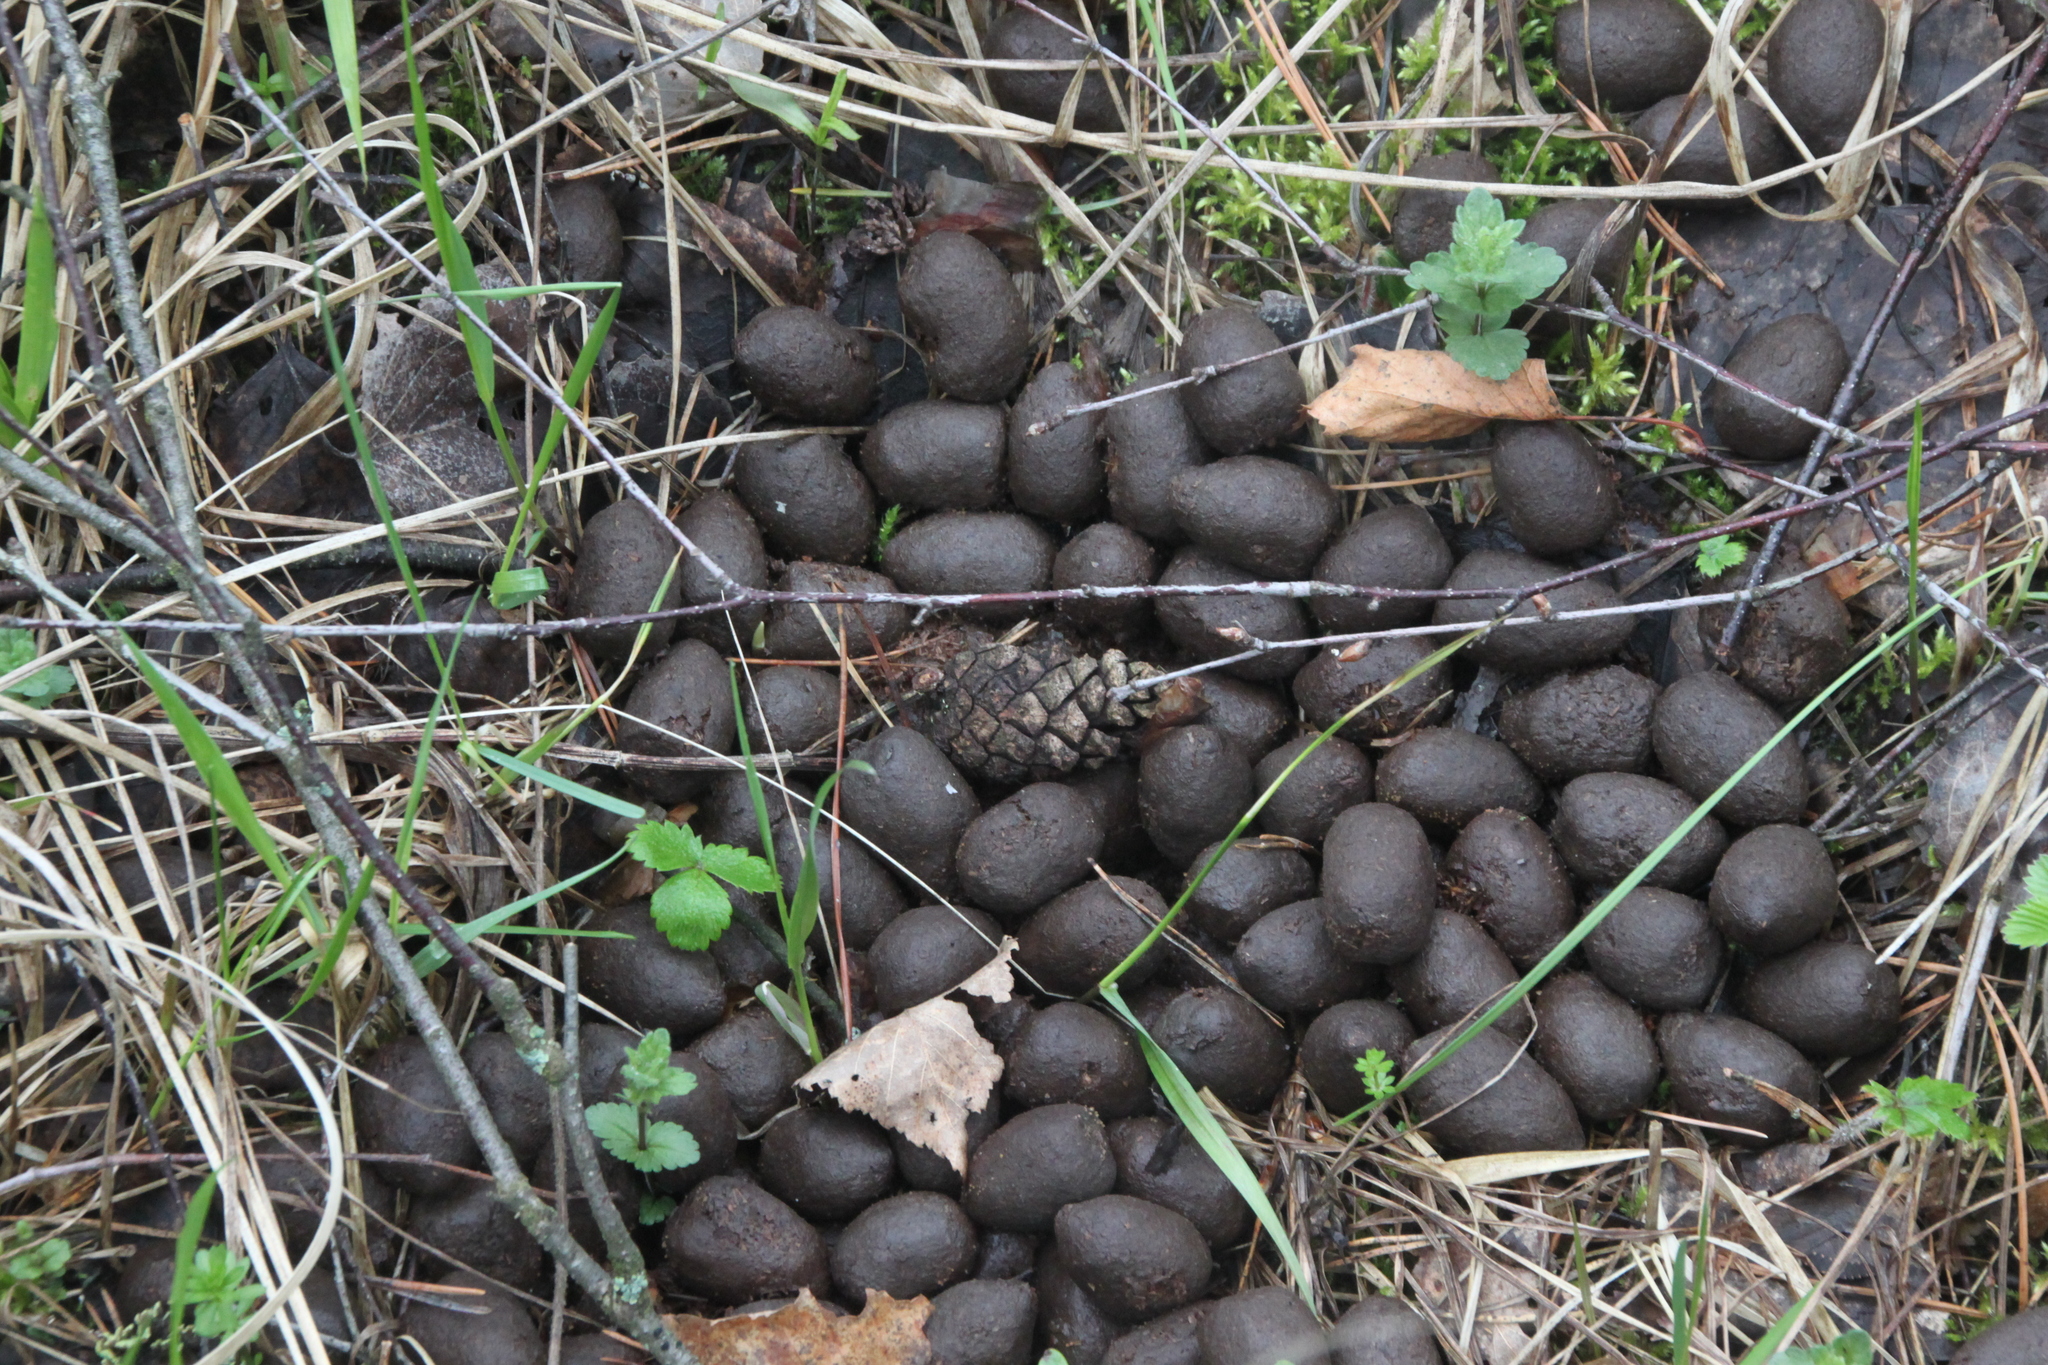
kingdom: Animalia
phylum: Chordata
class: Mammalia
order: Artiodactyla
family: Cervidae
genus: Alces
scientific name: Alces alces
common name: Moose
